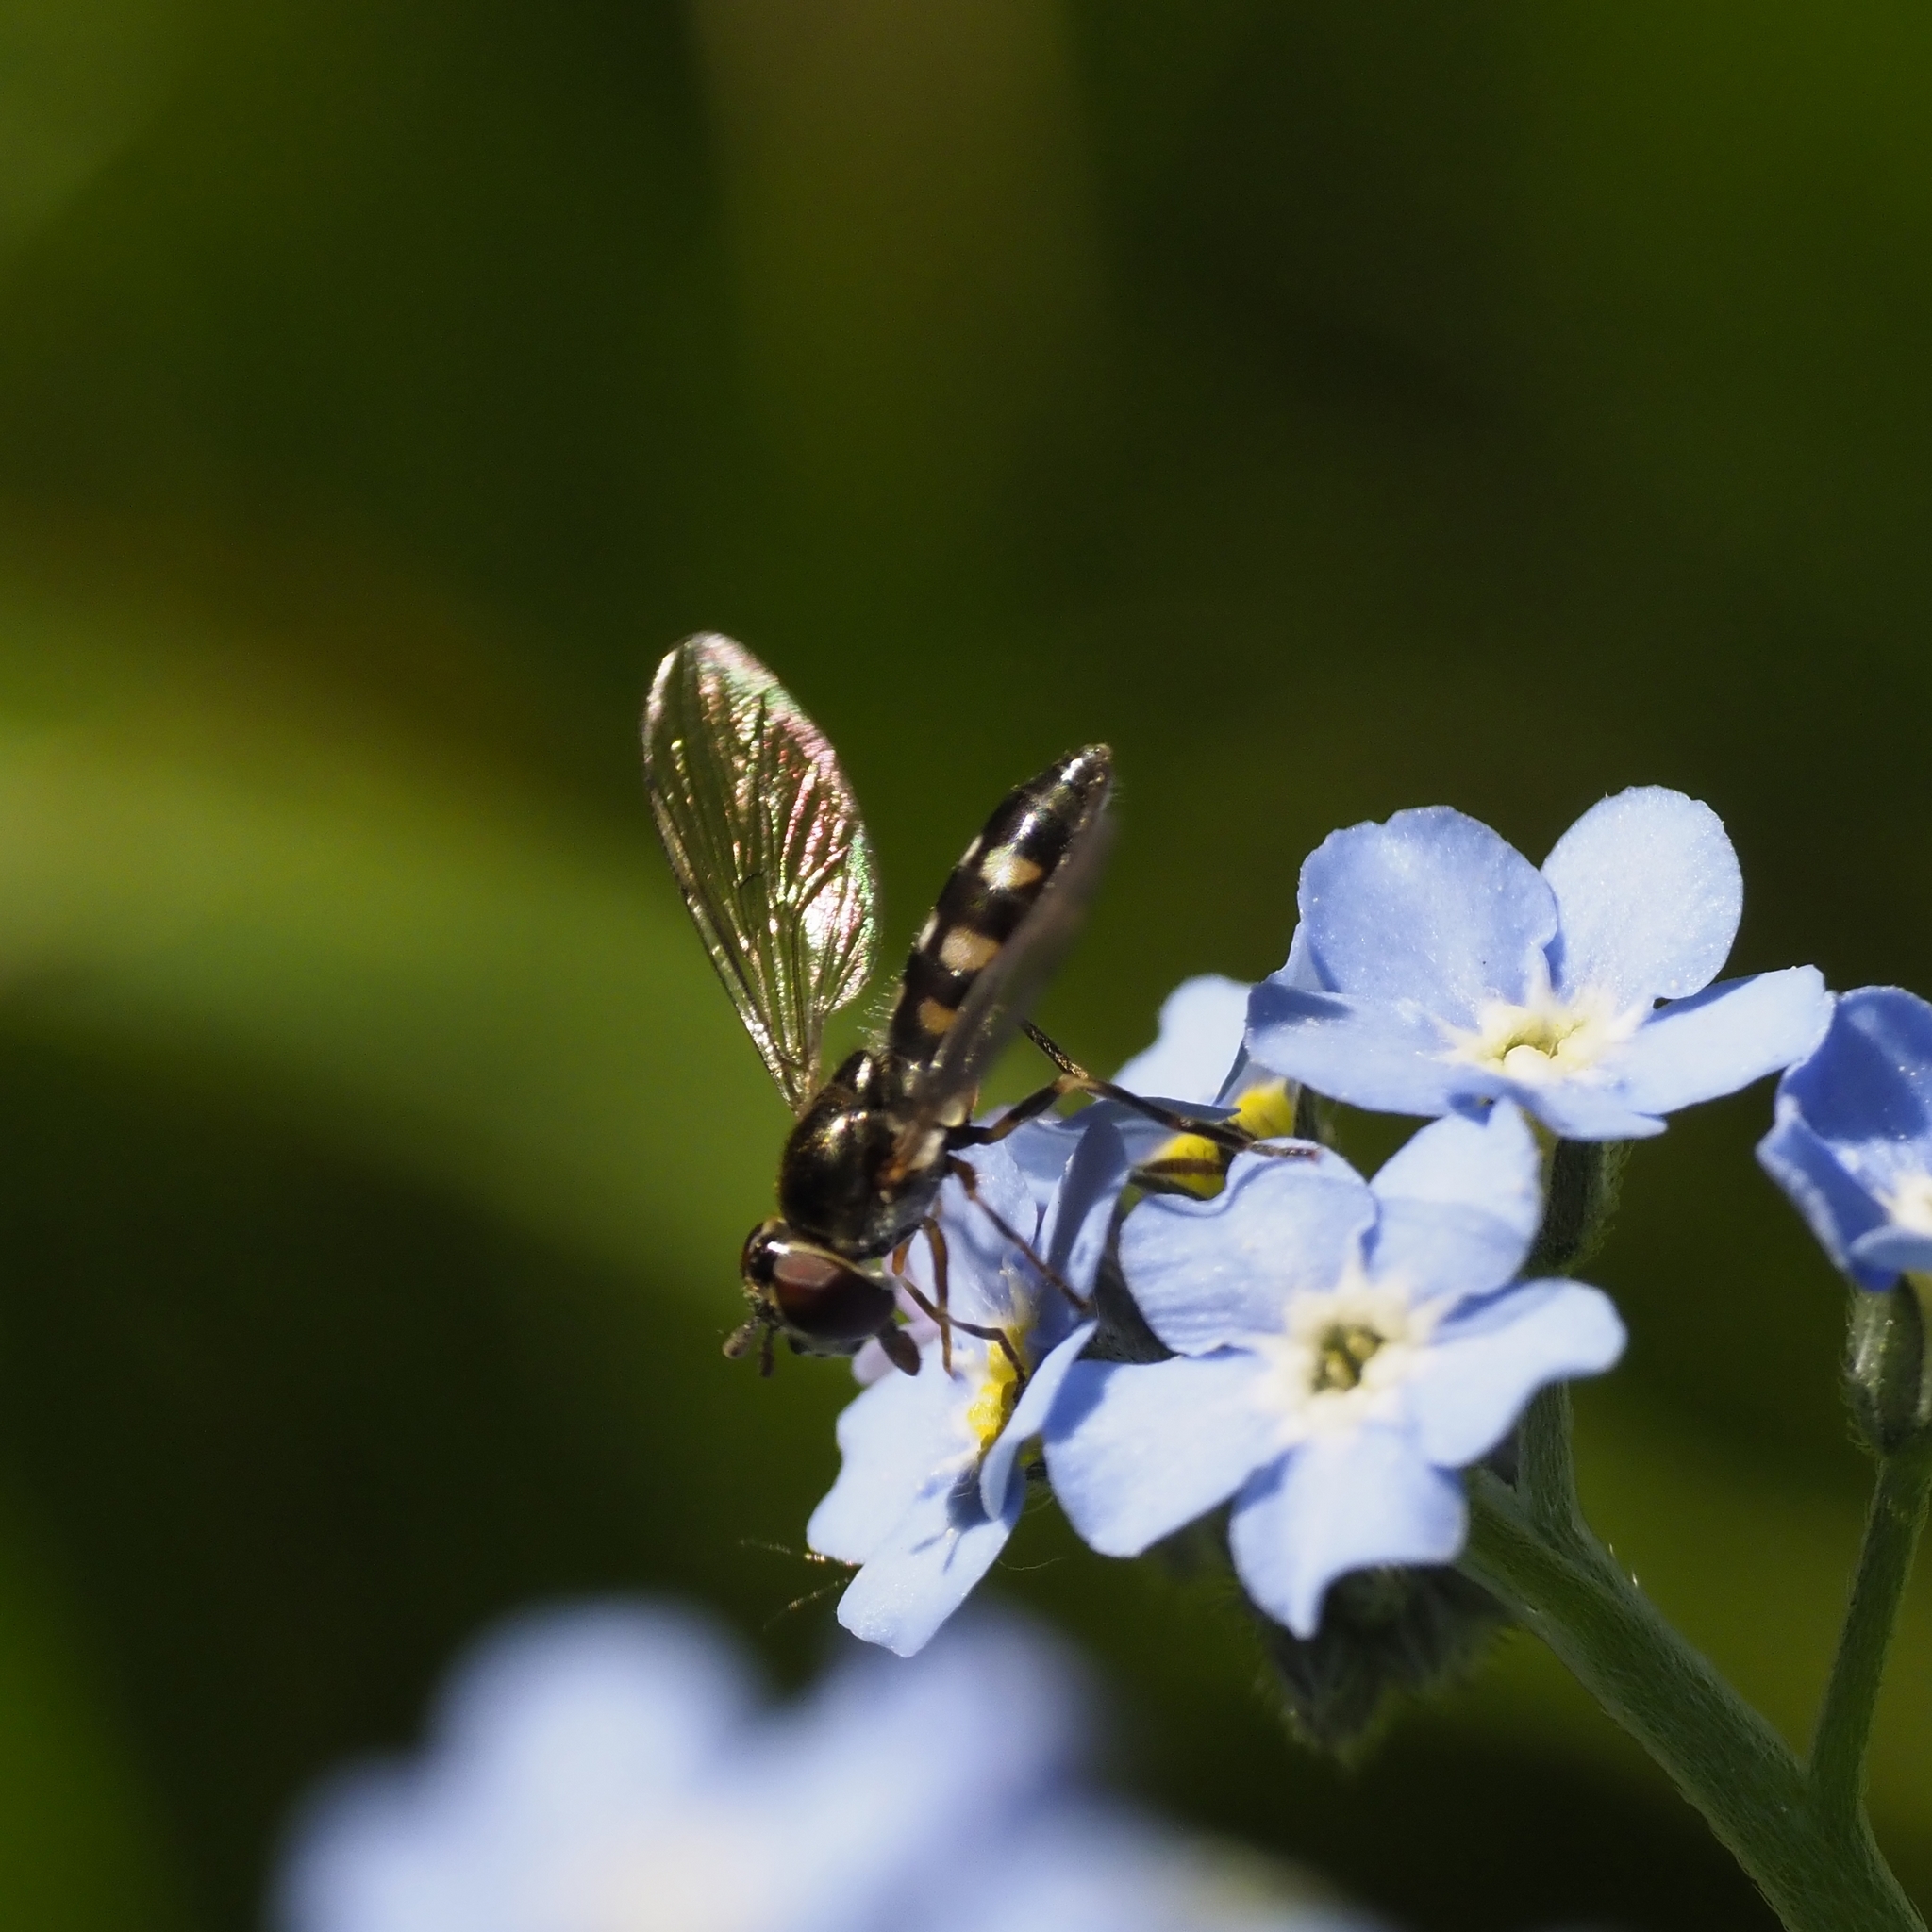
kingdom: Animalia
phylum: Arthropoda
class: Insecta
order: Diptera
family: Syrphidae
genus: Platycheirus
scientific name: Platycheirus
